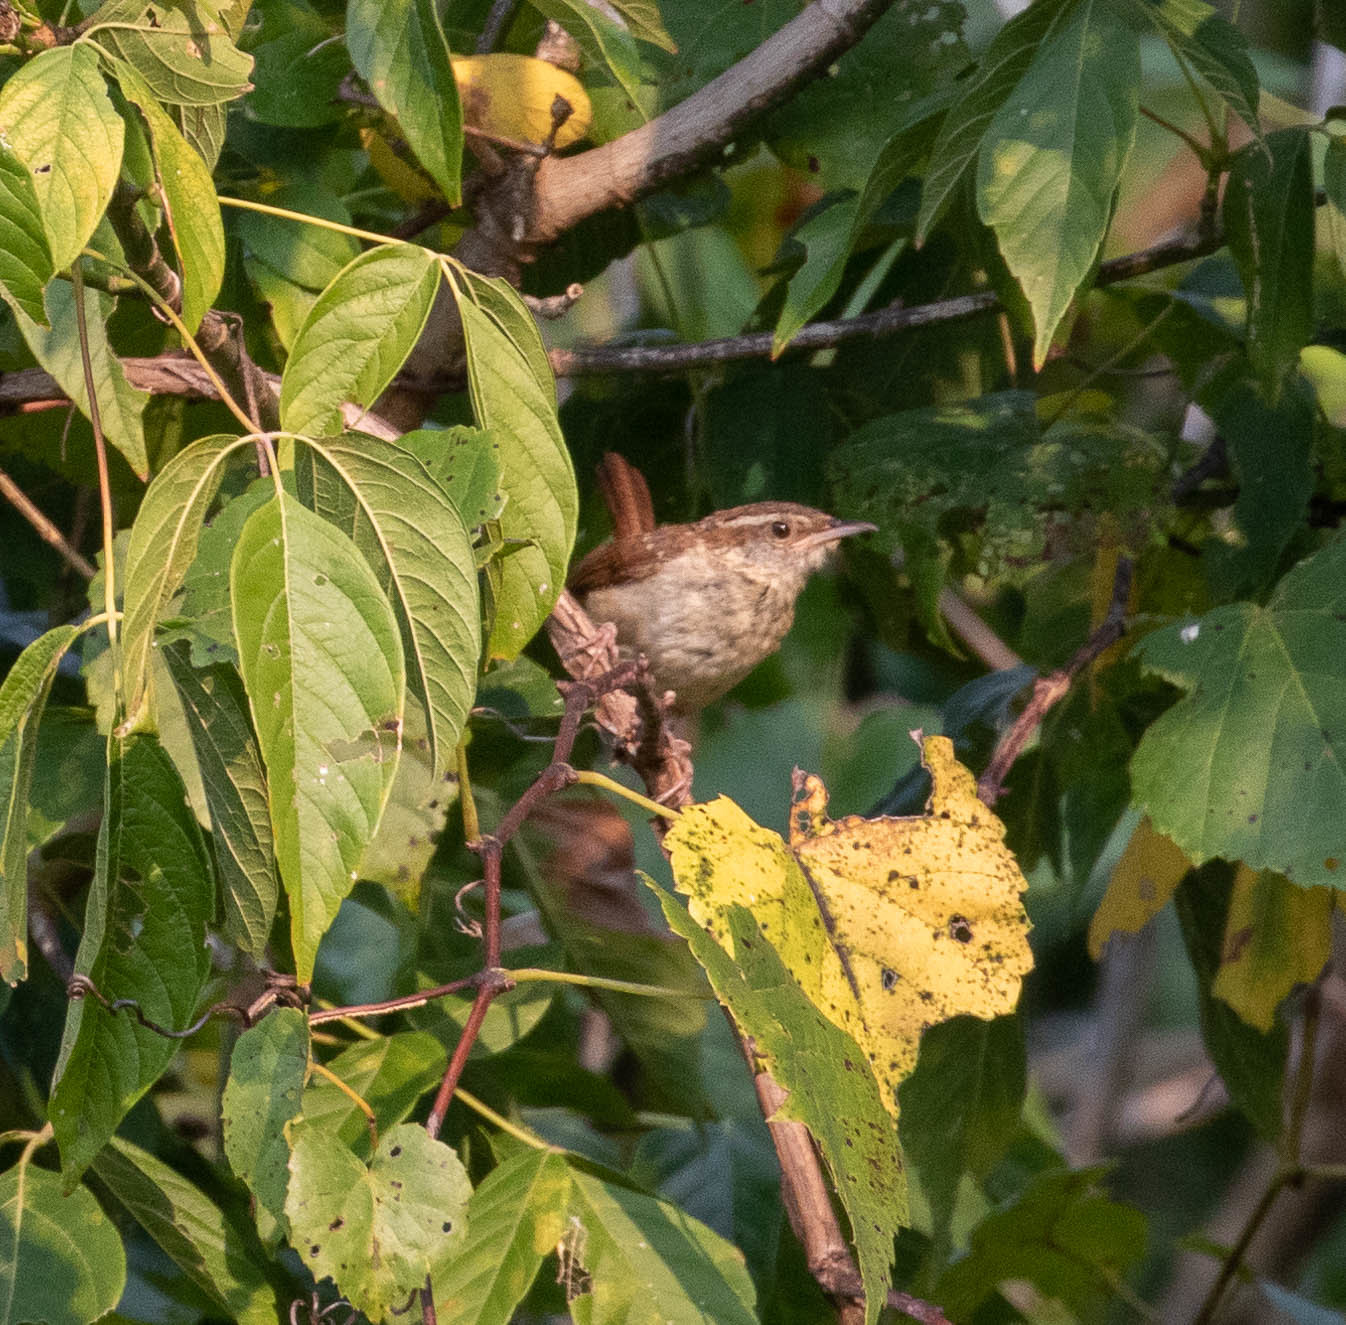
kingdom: Animalia
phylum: Chordata
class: Aves
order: Passeriformes
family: Troglodytidae
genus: Thryothorus
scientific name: Thryothorus ludovicianus
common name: Carolina wren
